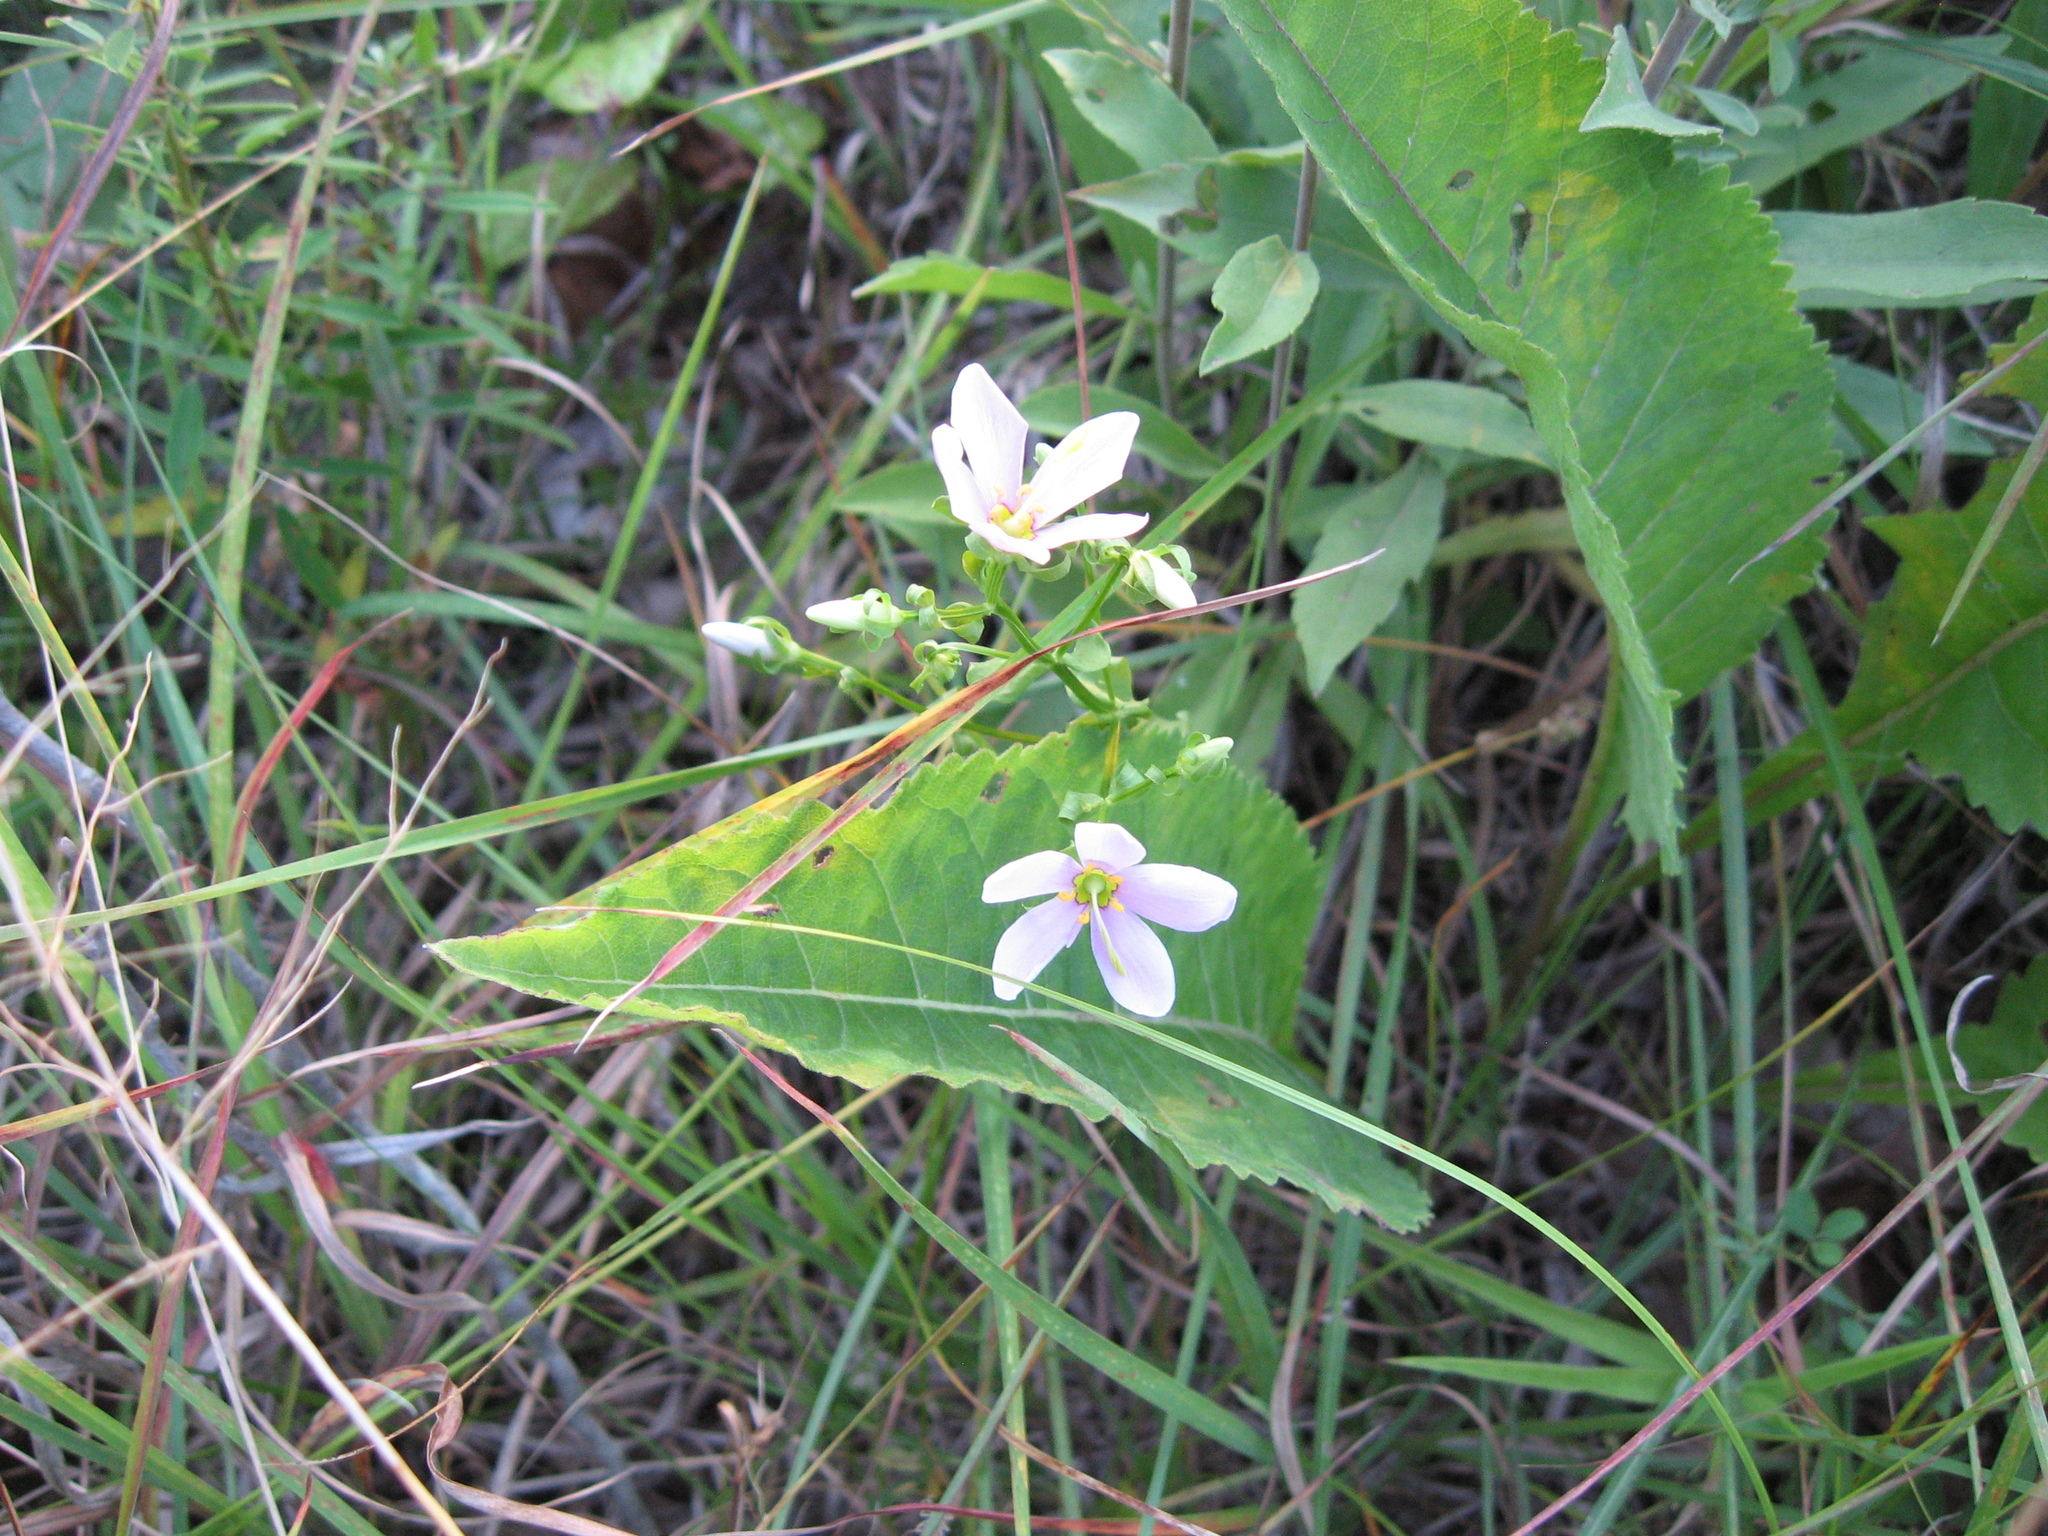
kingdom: Plantae
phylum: Tracheophyta
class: Magnoliopsida
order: Gentianales
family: Gentianaceae
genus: Sabatia
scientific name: Sabatia angularis
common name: Rose-pink
